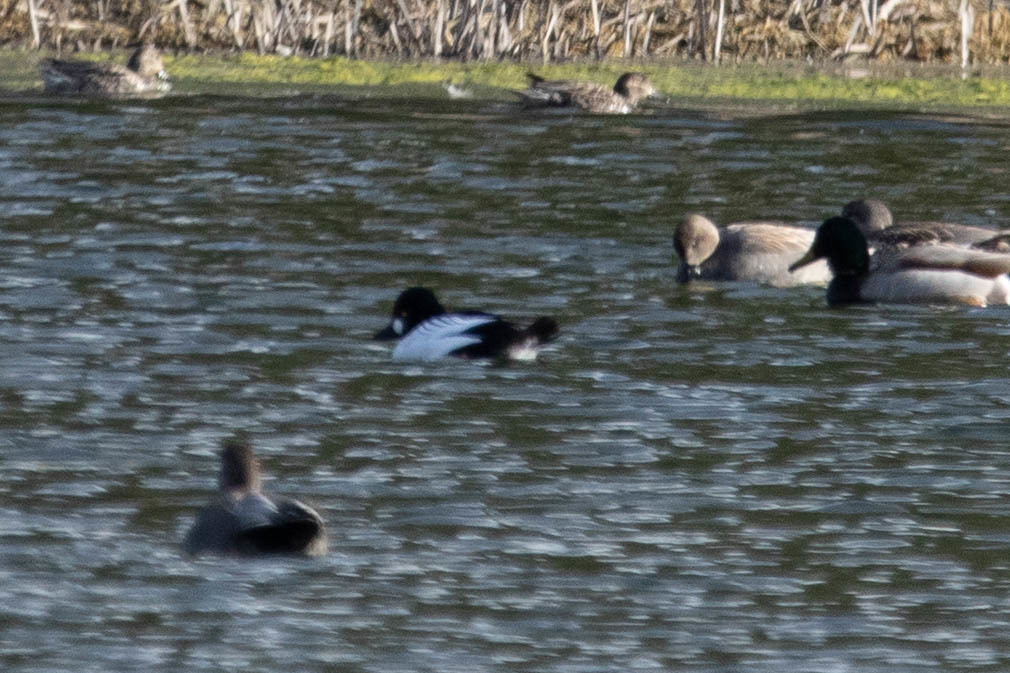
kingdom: Animalia
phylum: Chordata
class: Aves
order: Anseriformes
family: Anatidae
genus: Bucephala
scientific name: Bucephala clangula
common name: Common goldeneye
